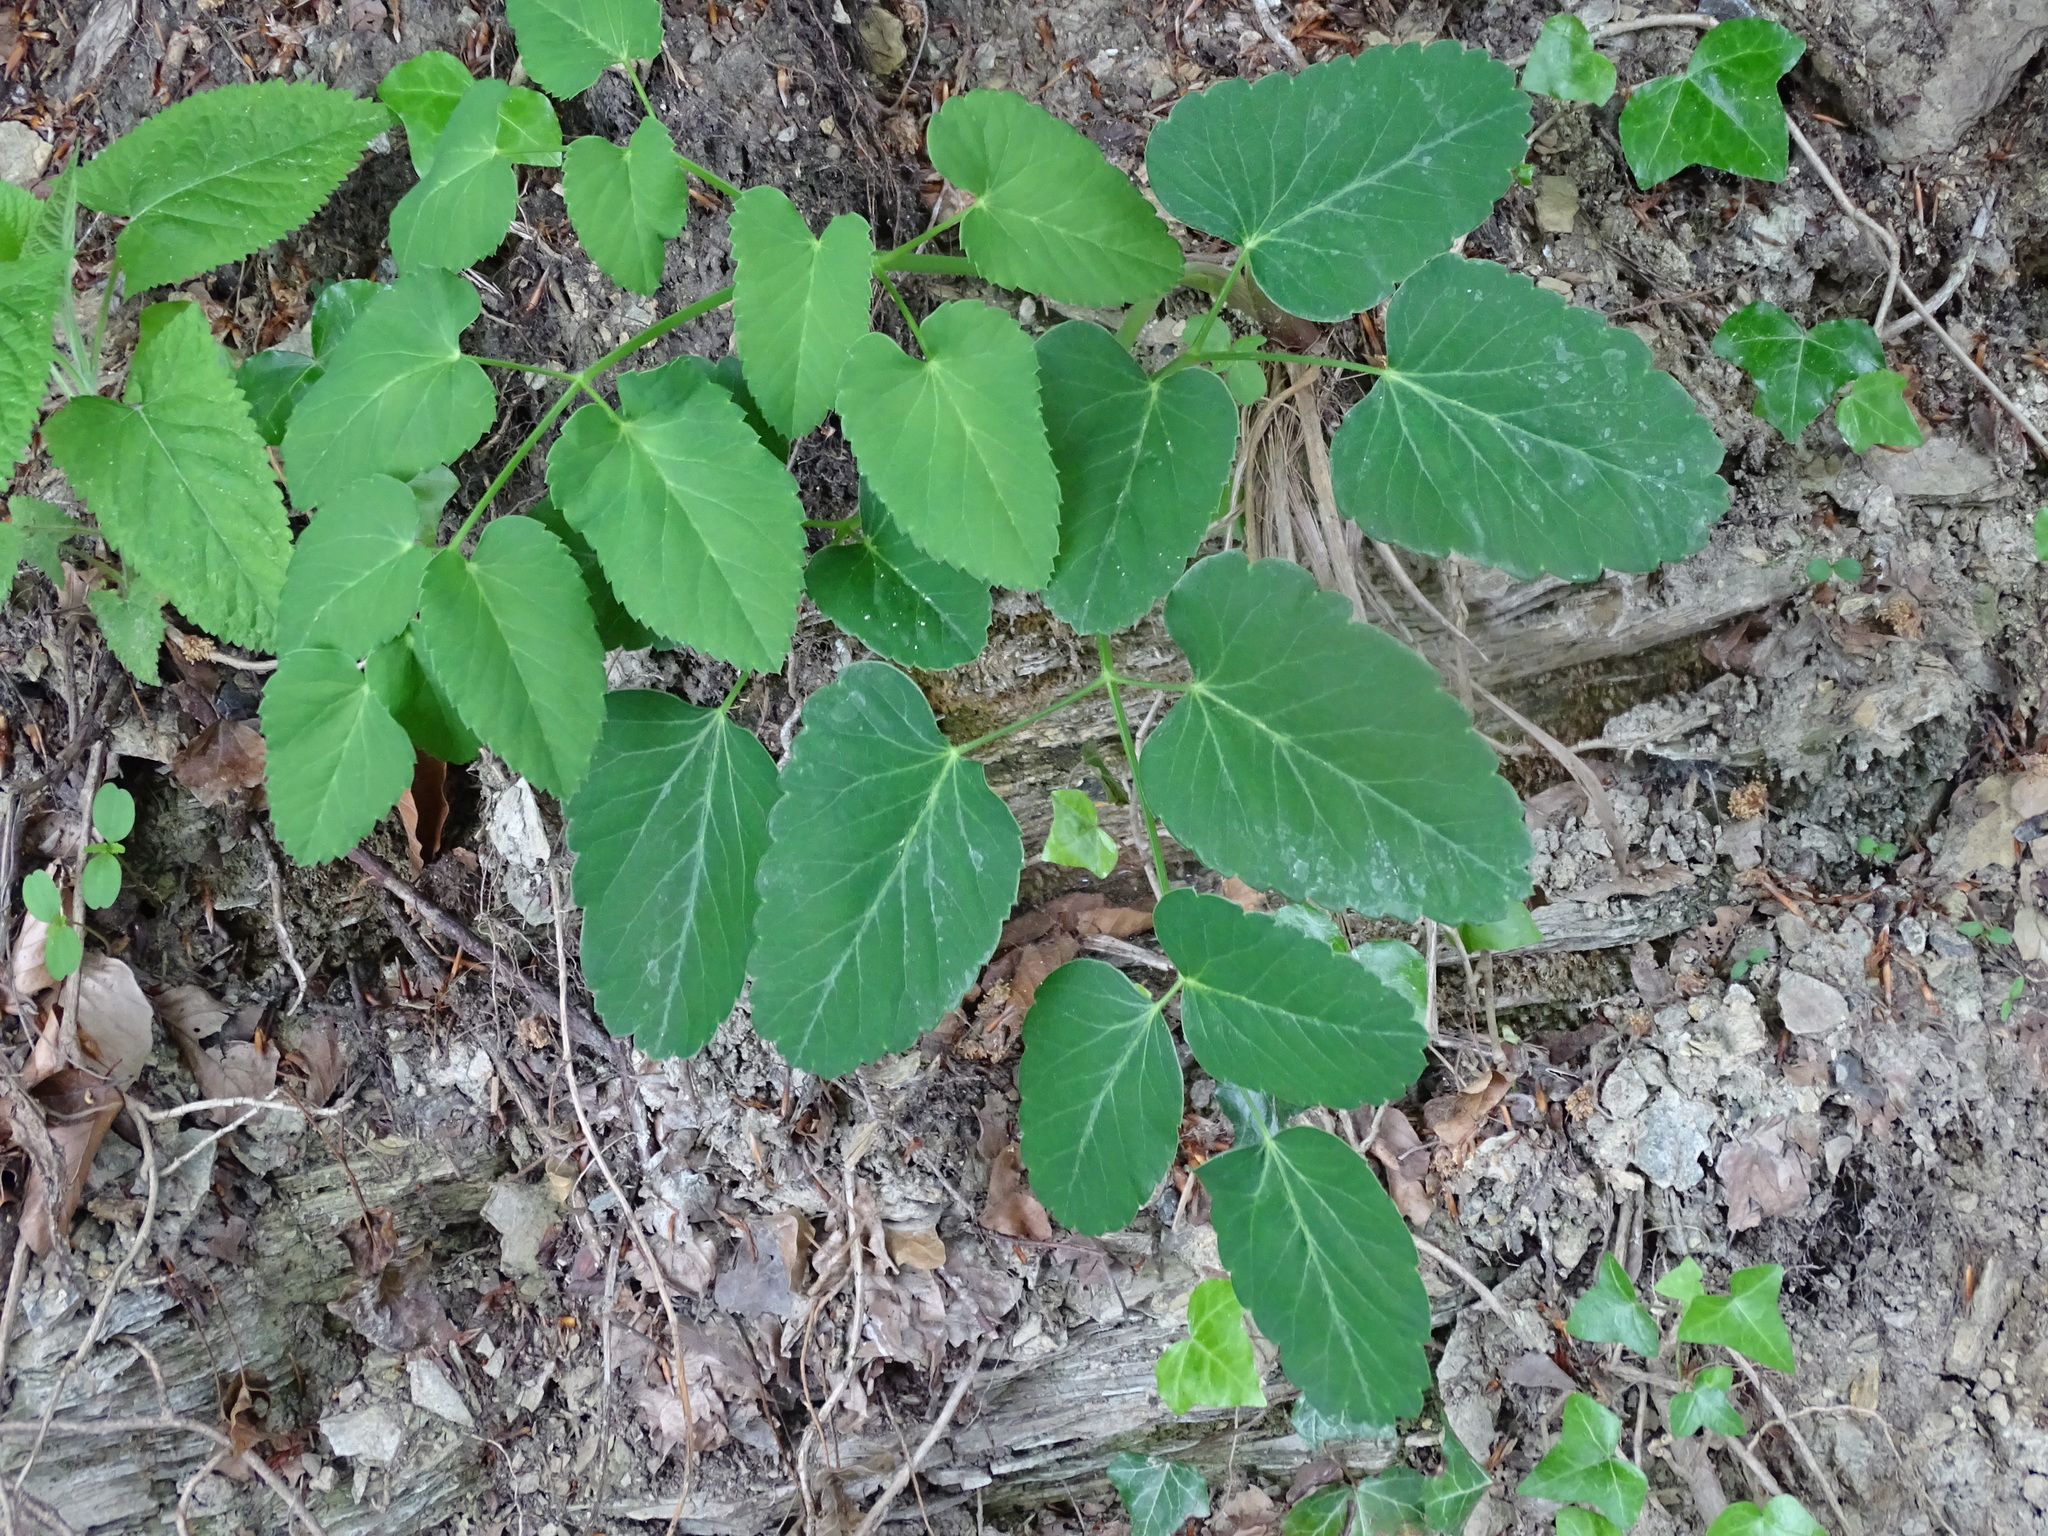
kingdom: Plantae
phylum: Tracheophyta
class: Magnoliopsida
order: Apiales
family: Apiaceae
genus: Laserpitium
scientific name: Laserpitium latifolium
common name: Broadleaf sermountain
